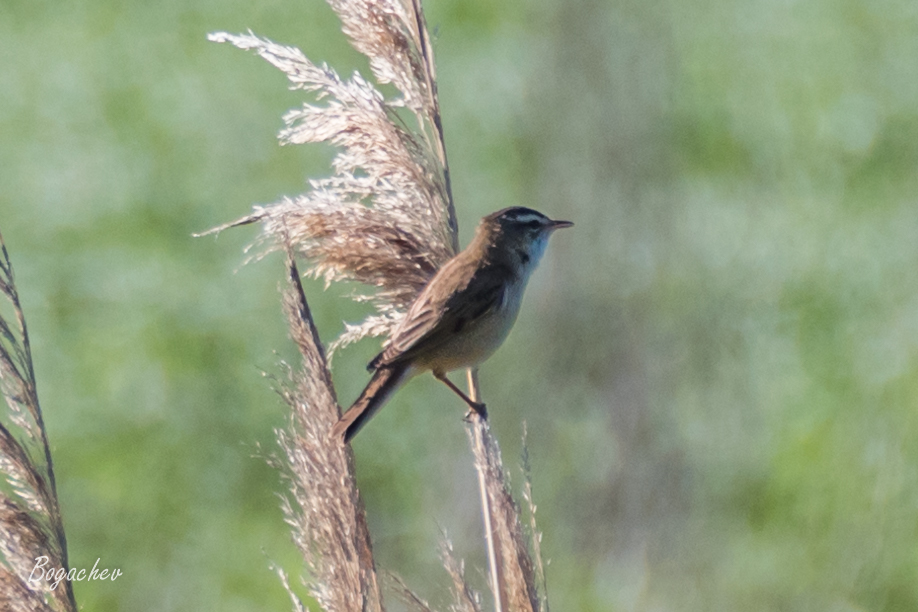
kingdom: Animalia
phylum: Chordata
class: Aves
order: Passeriformes
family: Acrocephalidae
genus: Acrocephalus
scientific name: Acrocephalus schoenobaenus
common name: Sedge warbler
